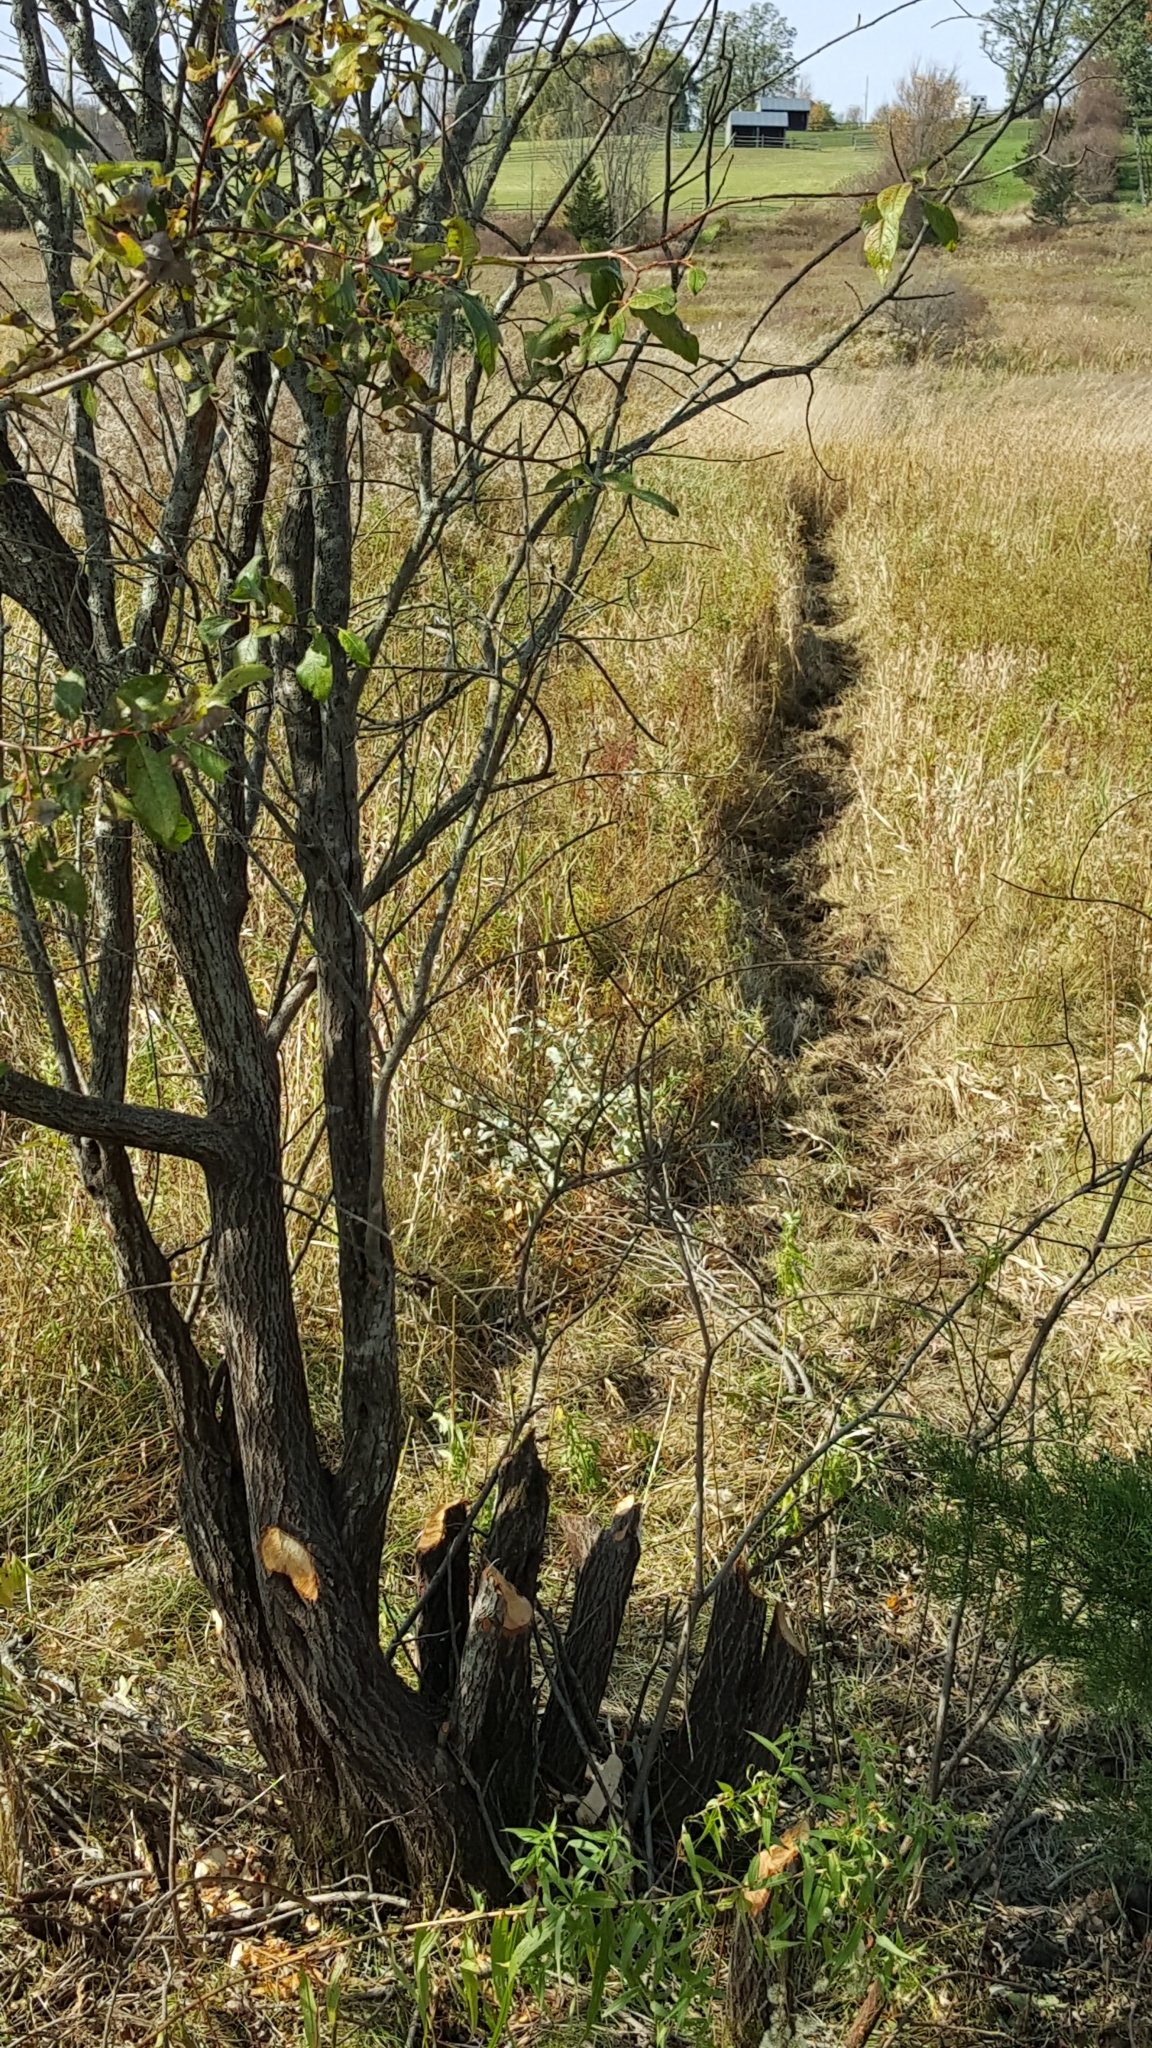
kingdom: Animalia
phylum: Chordata
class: Mammalia
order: Rodentia
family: Castoridae
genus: Castor
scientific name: Castor canadensis
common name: American beaver
